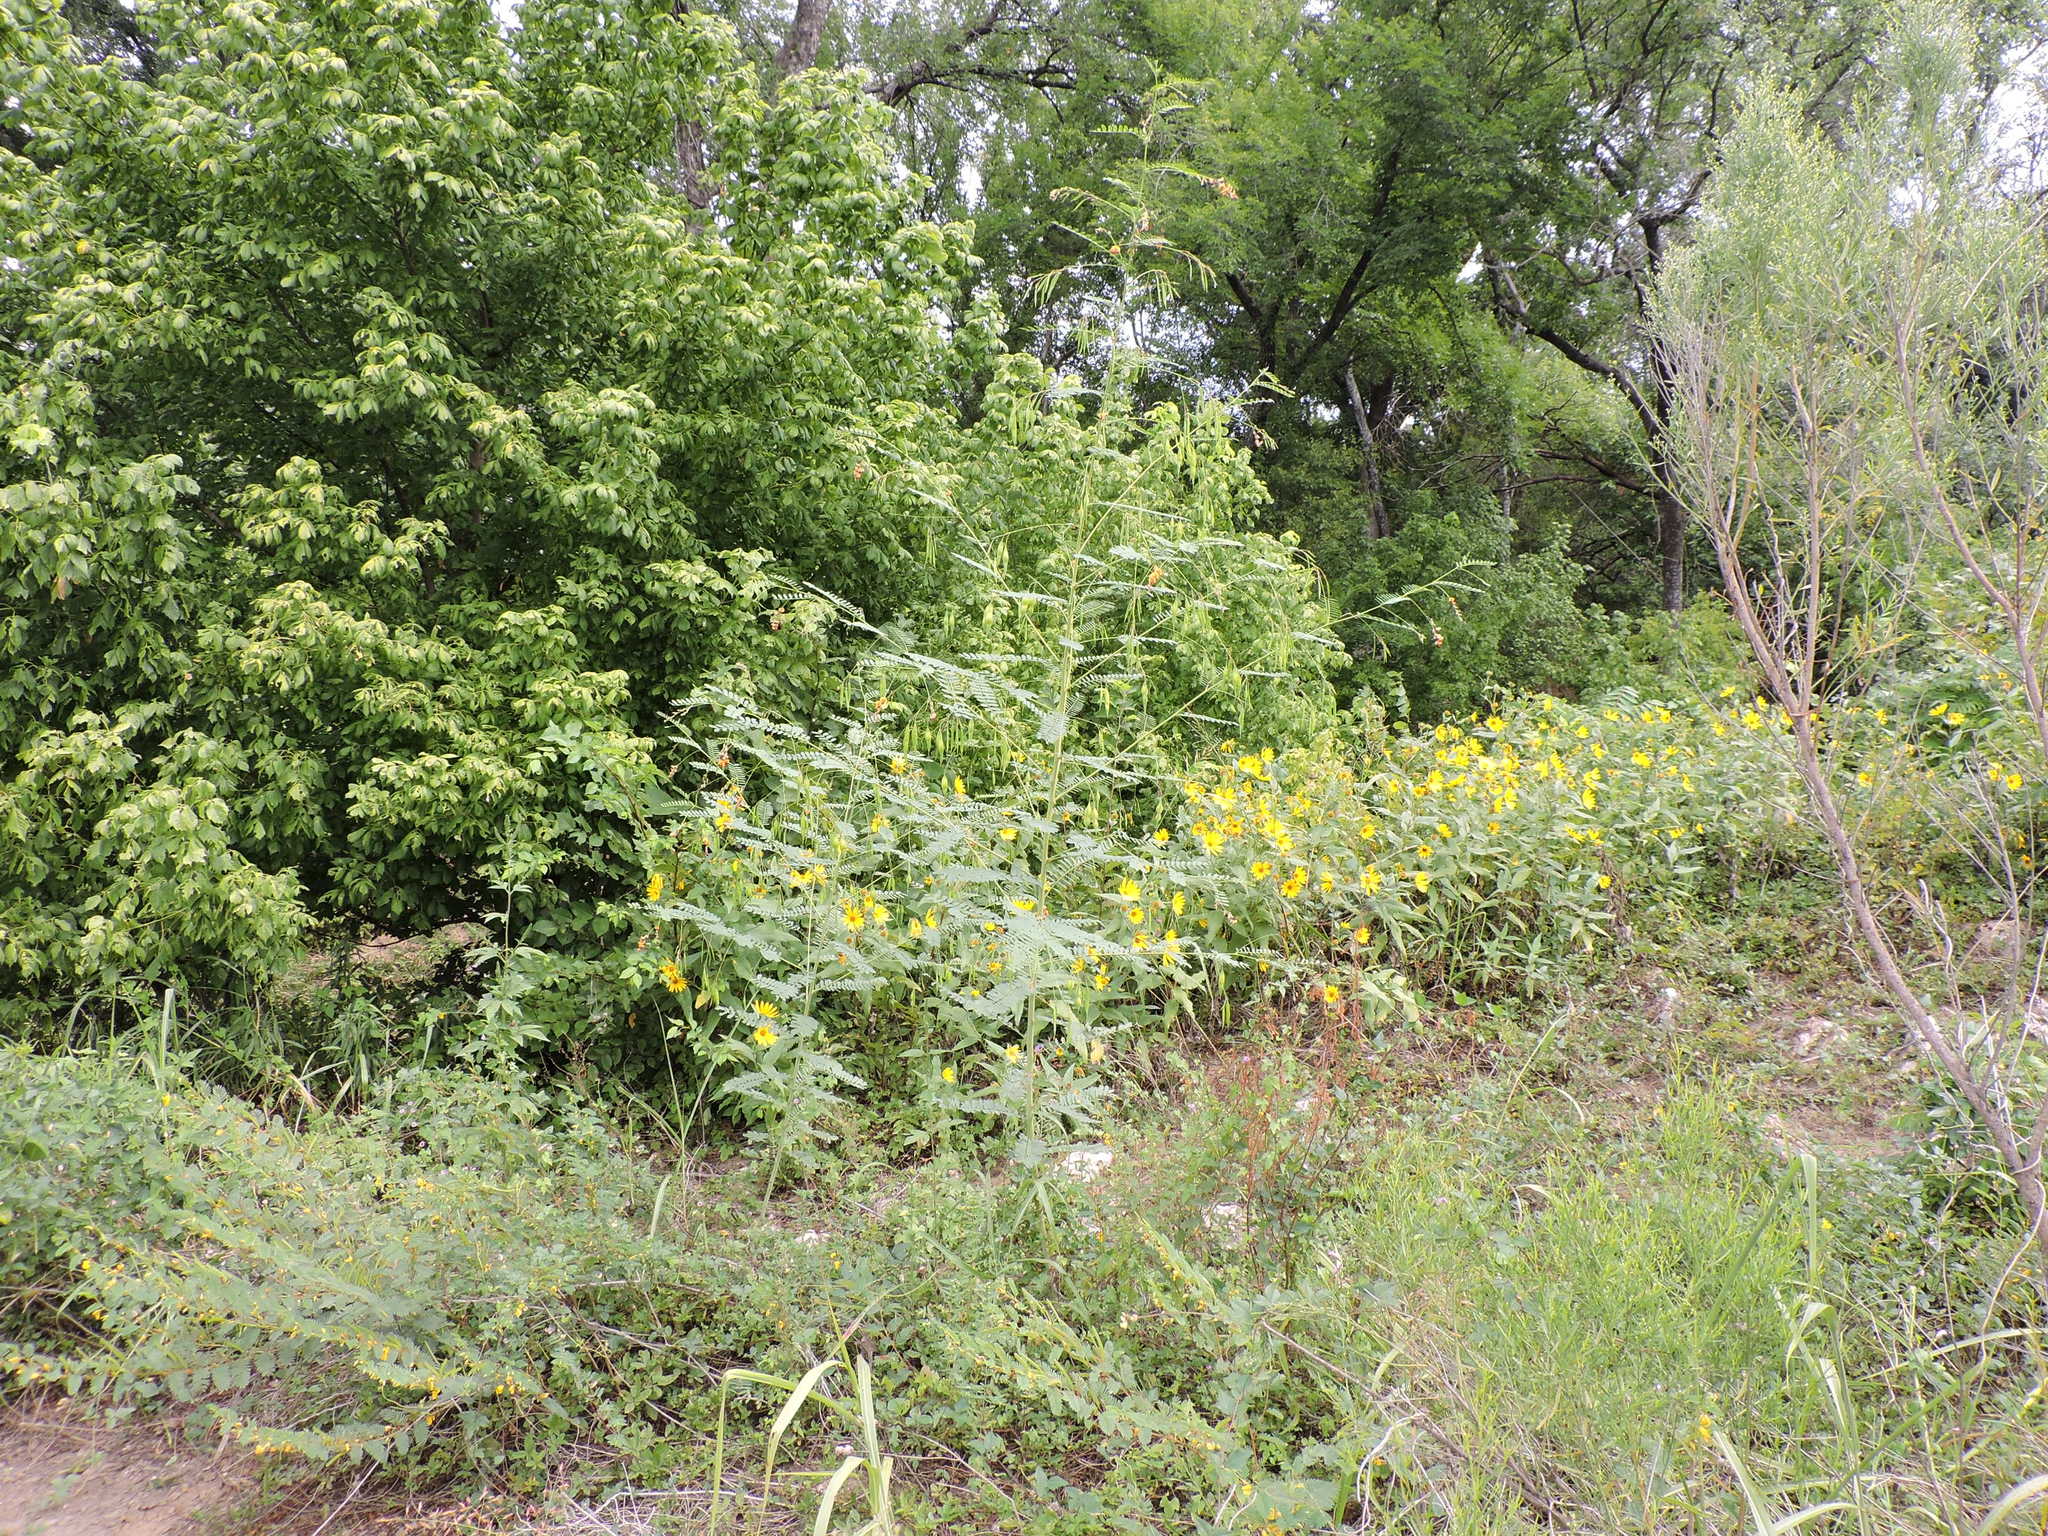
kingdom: Plantae
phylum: Tracheophyta
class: Magnoliopsida
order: Fabales
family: Fabaceae
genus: Sesbania
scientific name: Sesbania vesicaria
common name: Bagpod
